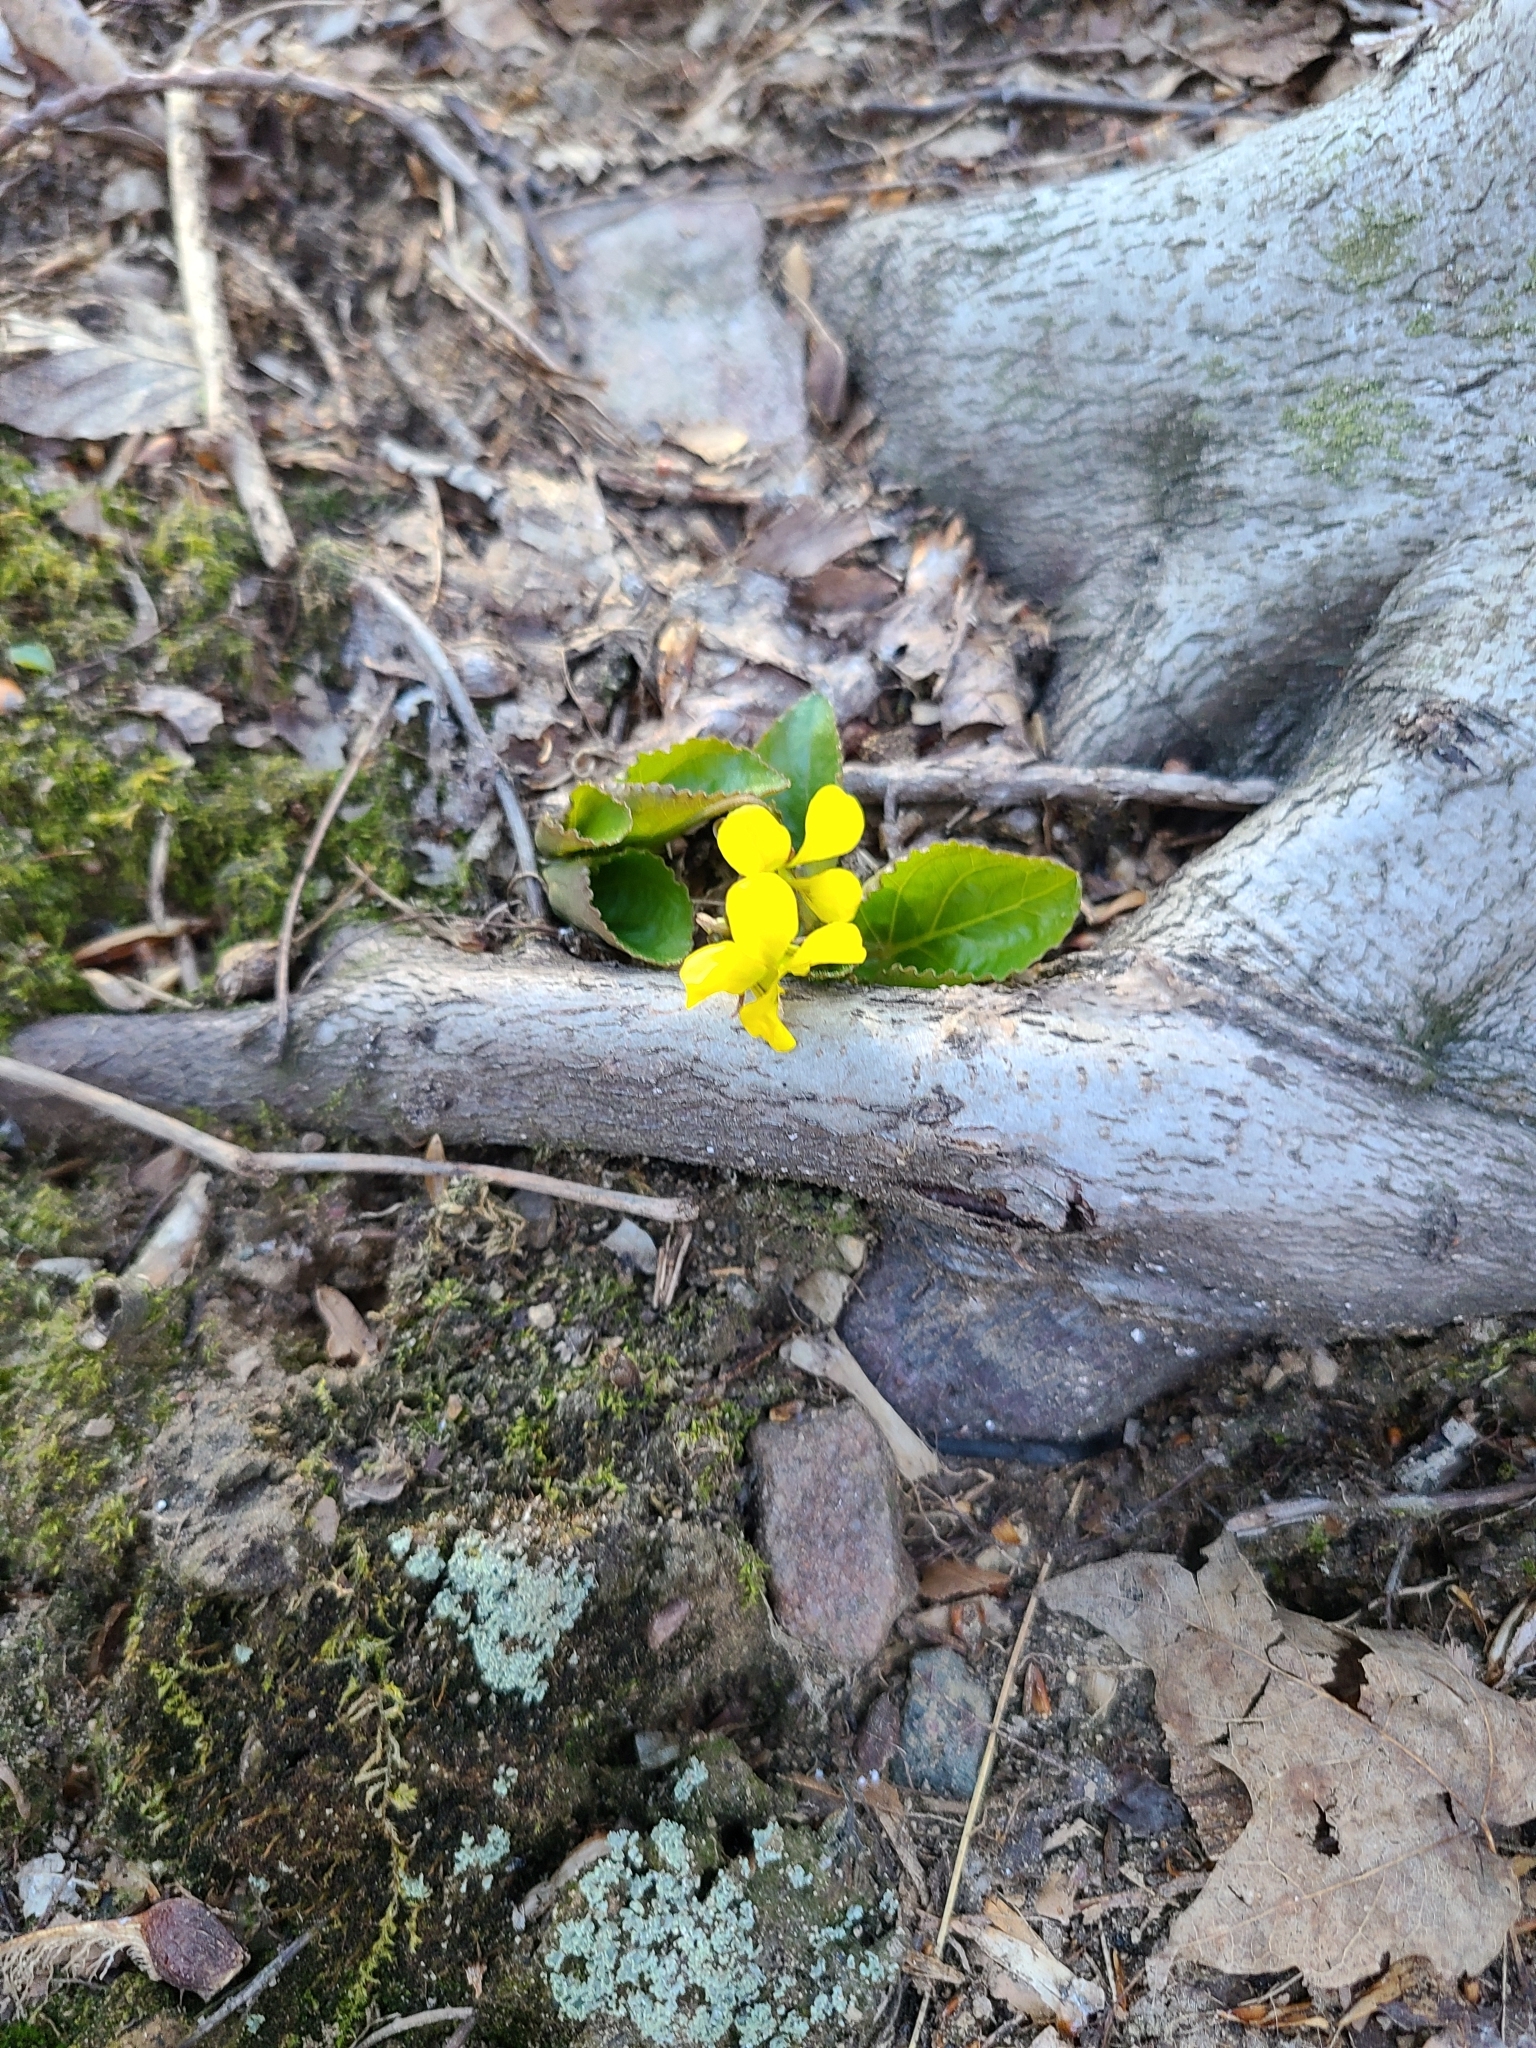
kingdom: Plantae
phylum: Tracheophyta
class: Magnoliopsida
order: Malpighiales
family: Violaceae
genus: Viola
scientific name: Viola rotundifolia
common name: Early yellow violet
